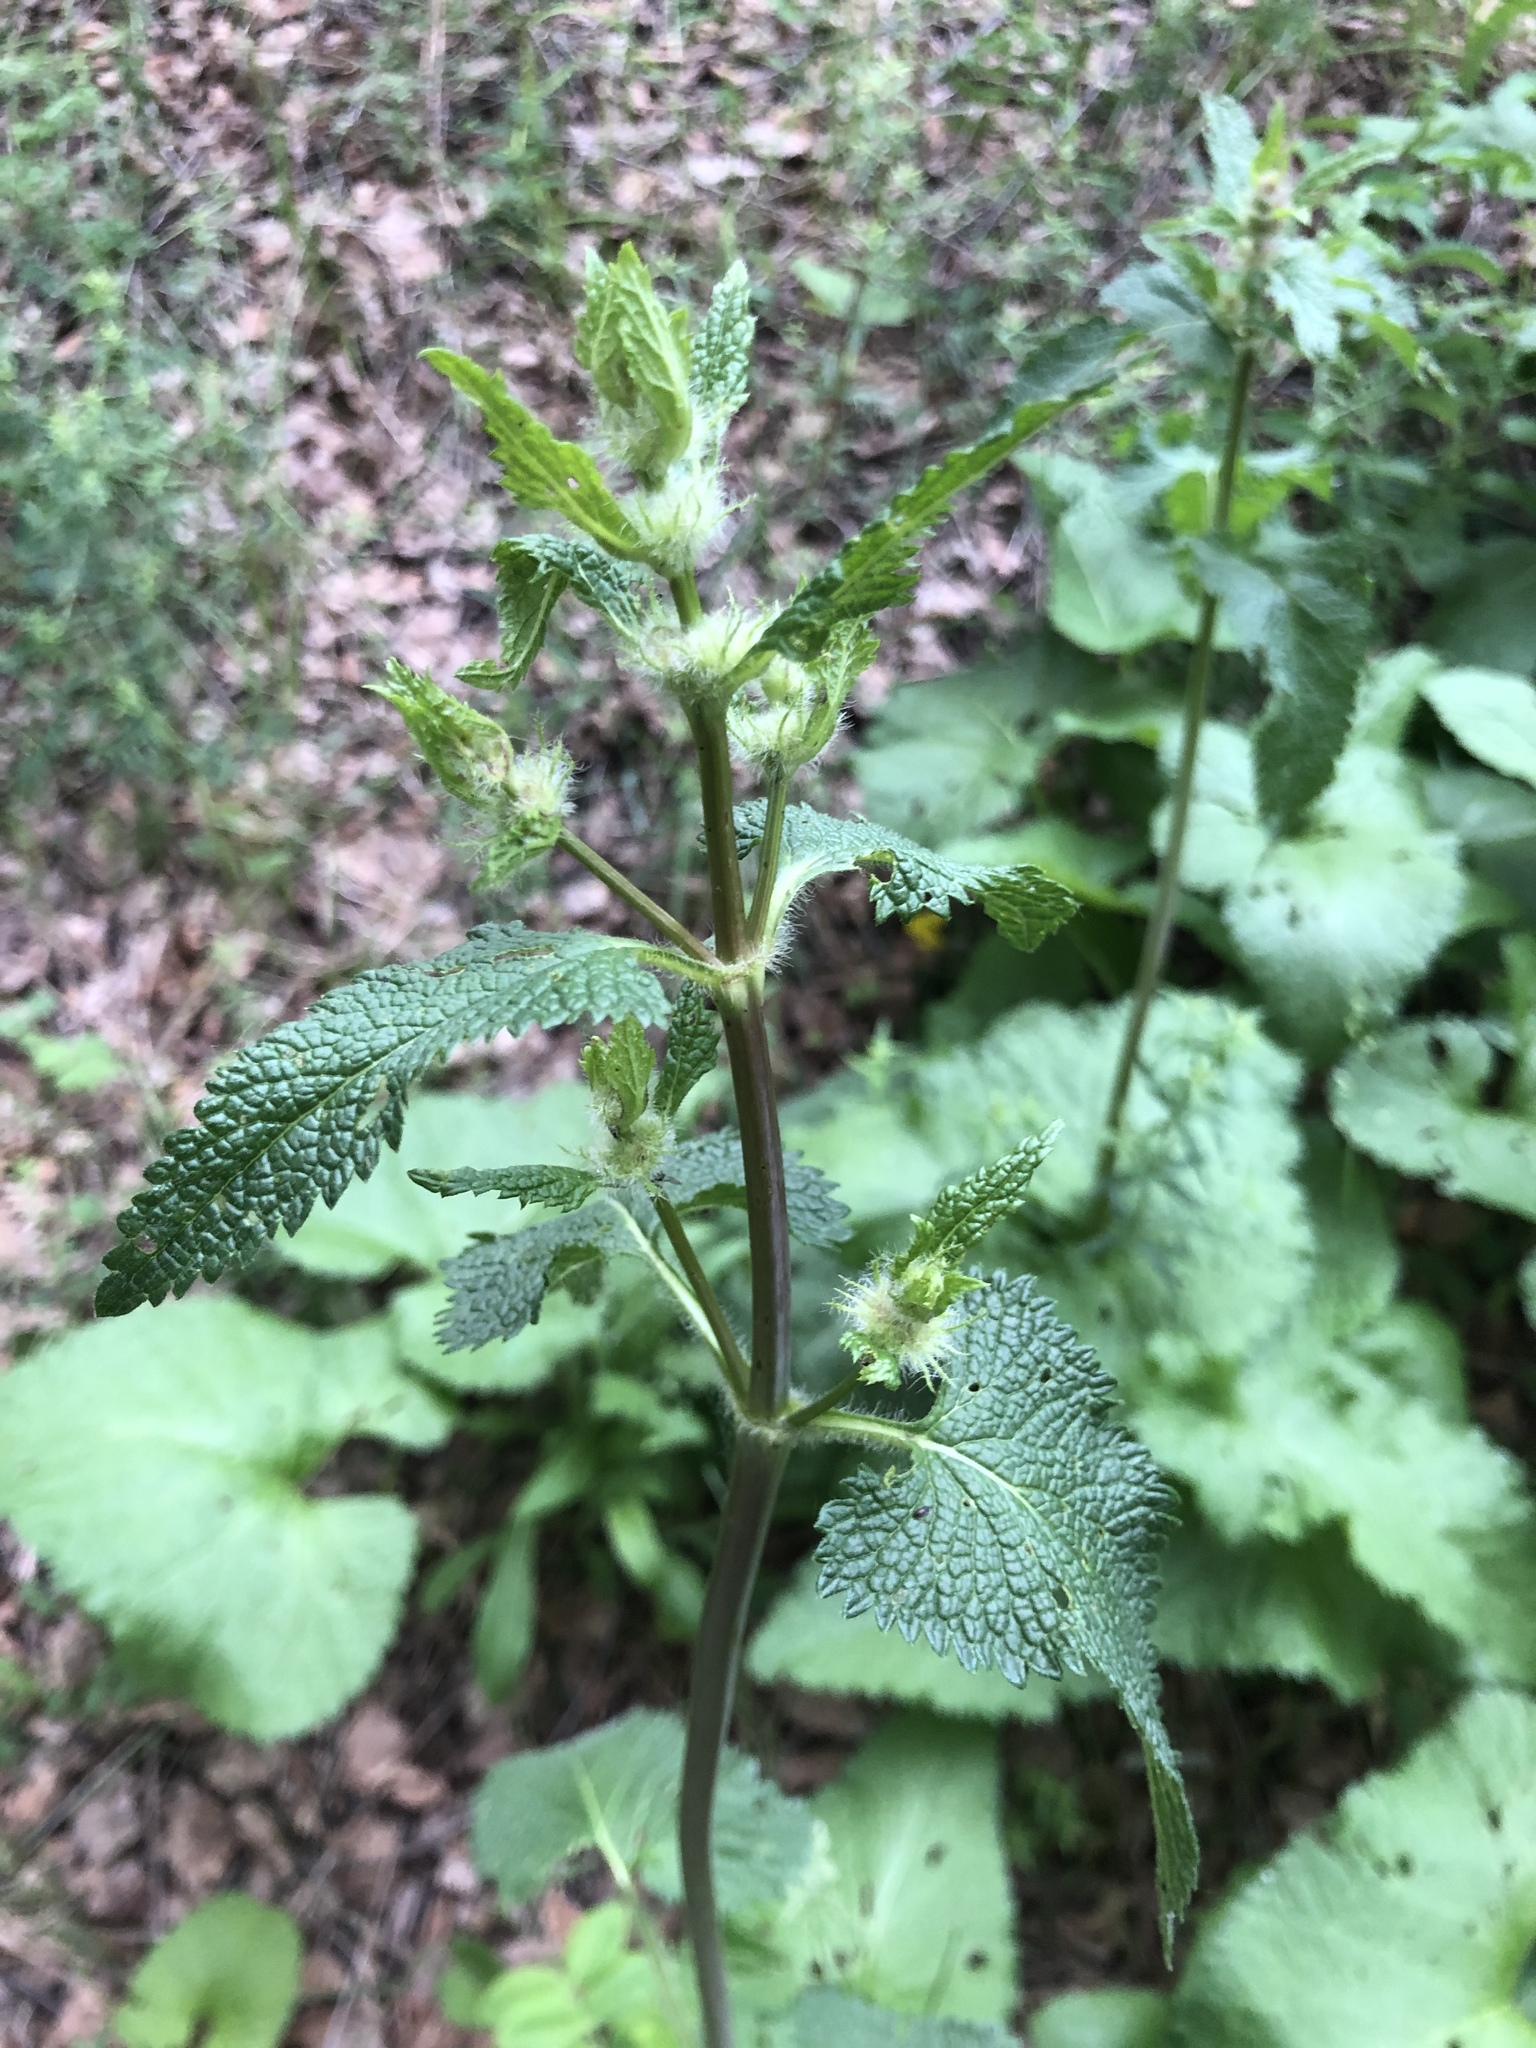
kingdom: Plantae
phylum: Tracheophyta
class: Magnoliopsida
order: Lamiales
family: Lamiaceae
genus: Phlomoides
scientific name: Phlomoides tuberosa
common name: Tuberous jerusalem sage
